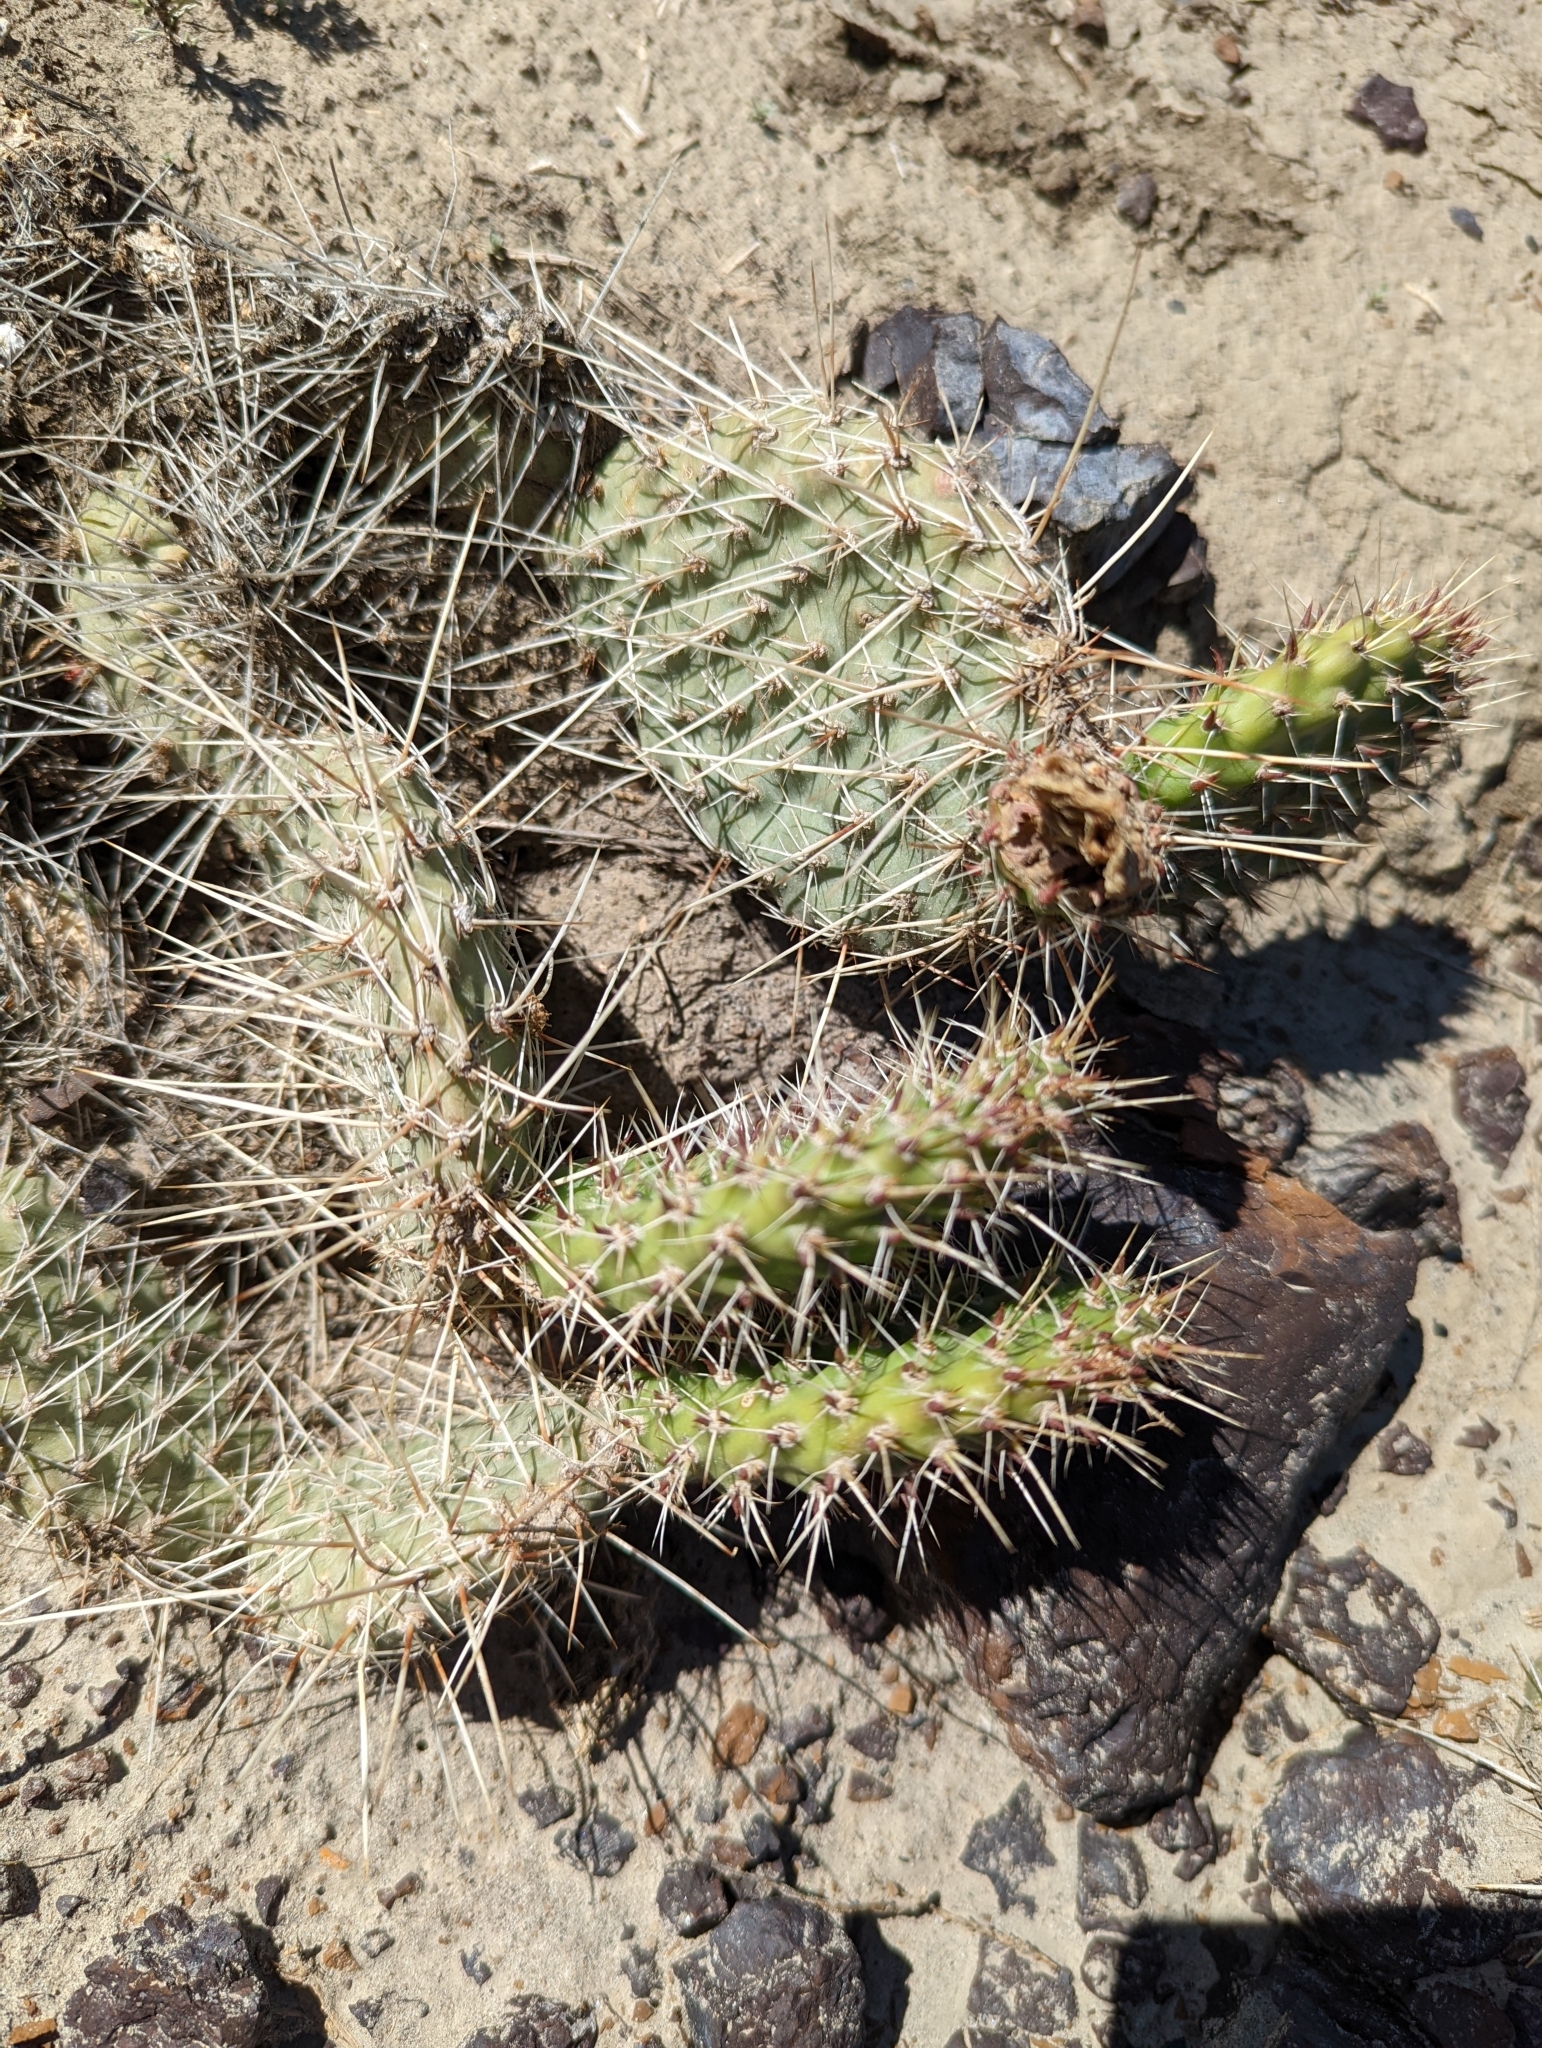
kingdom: Plantae
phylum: Tracheophyta
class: Magnoliopsida
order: Caryophyllales
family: Cactaceae
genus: Opuntia
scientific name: Opuntia polyacantha
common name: Plains prickly-pear
